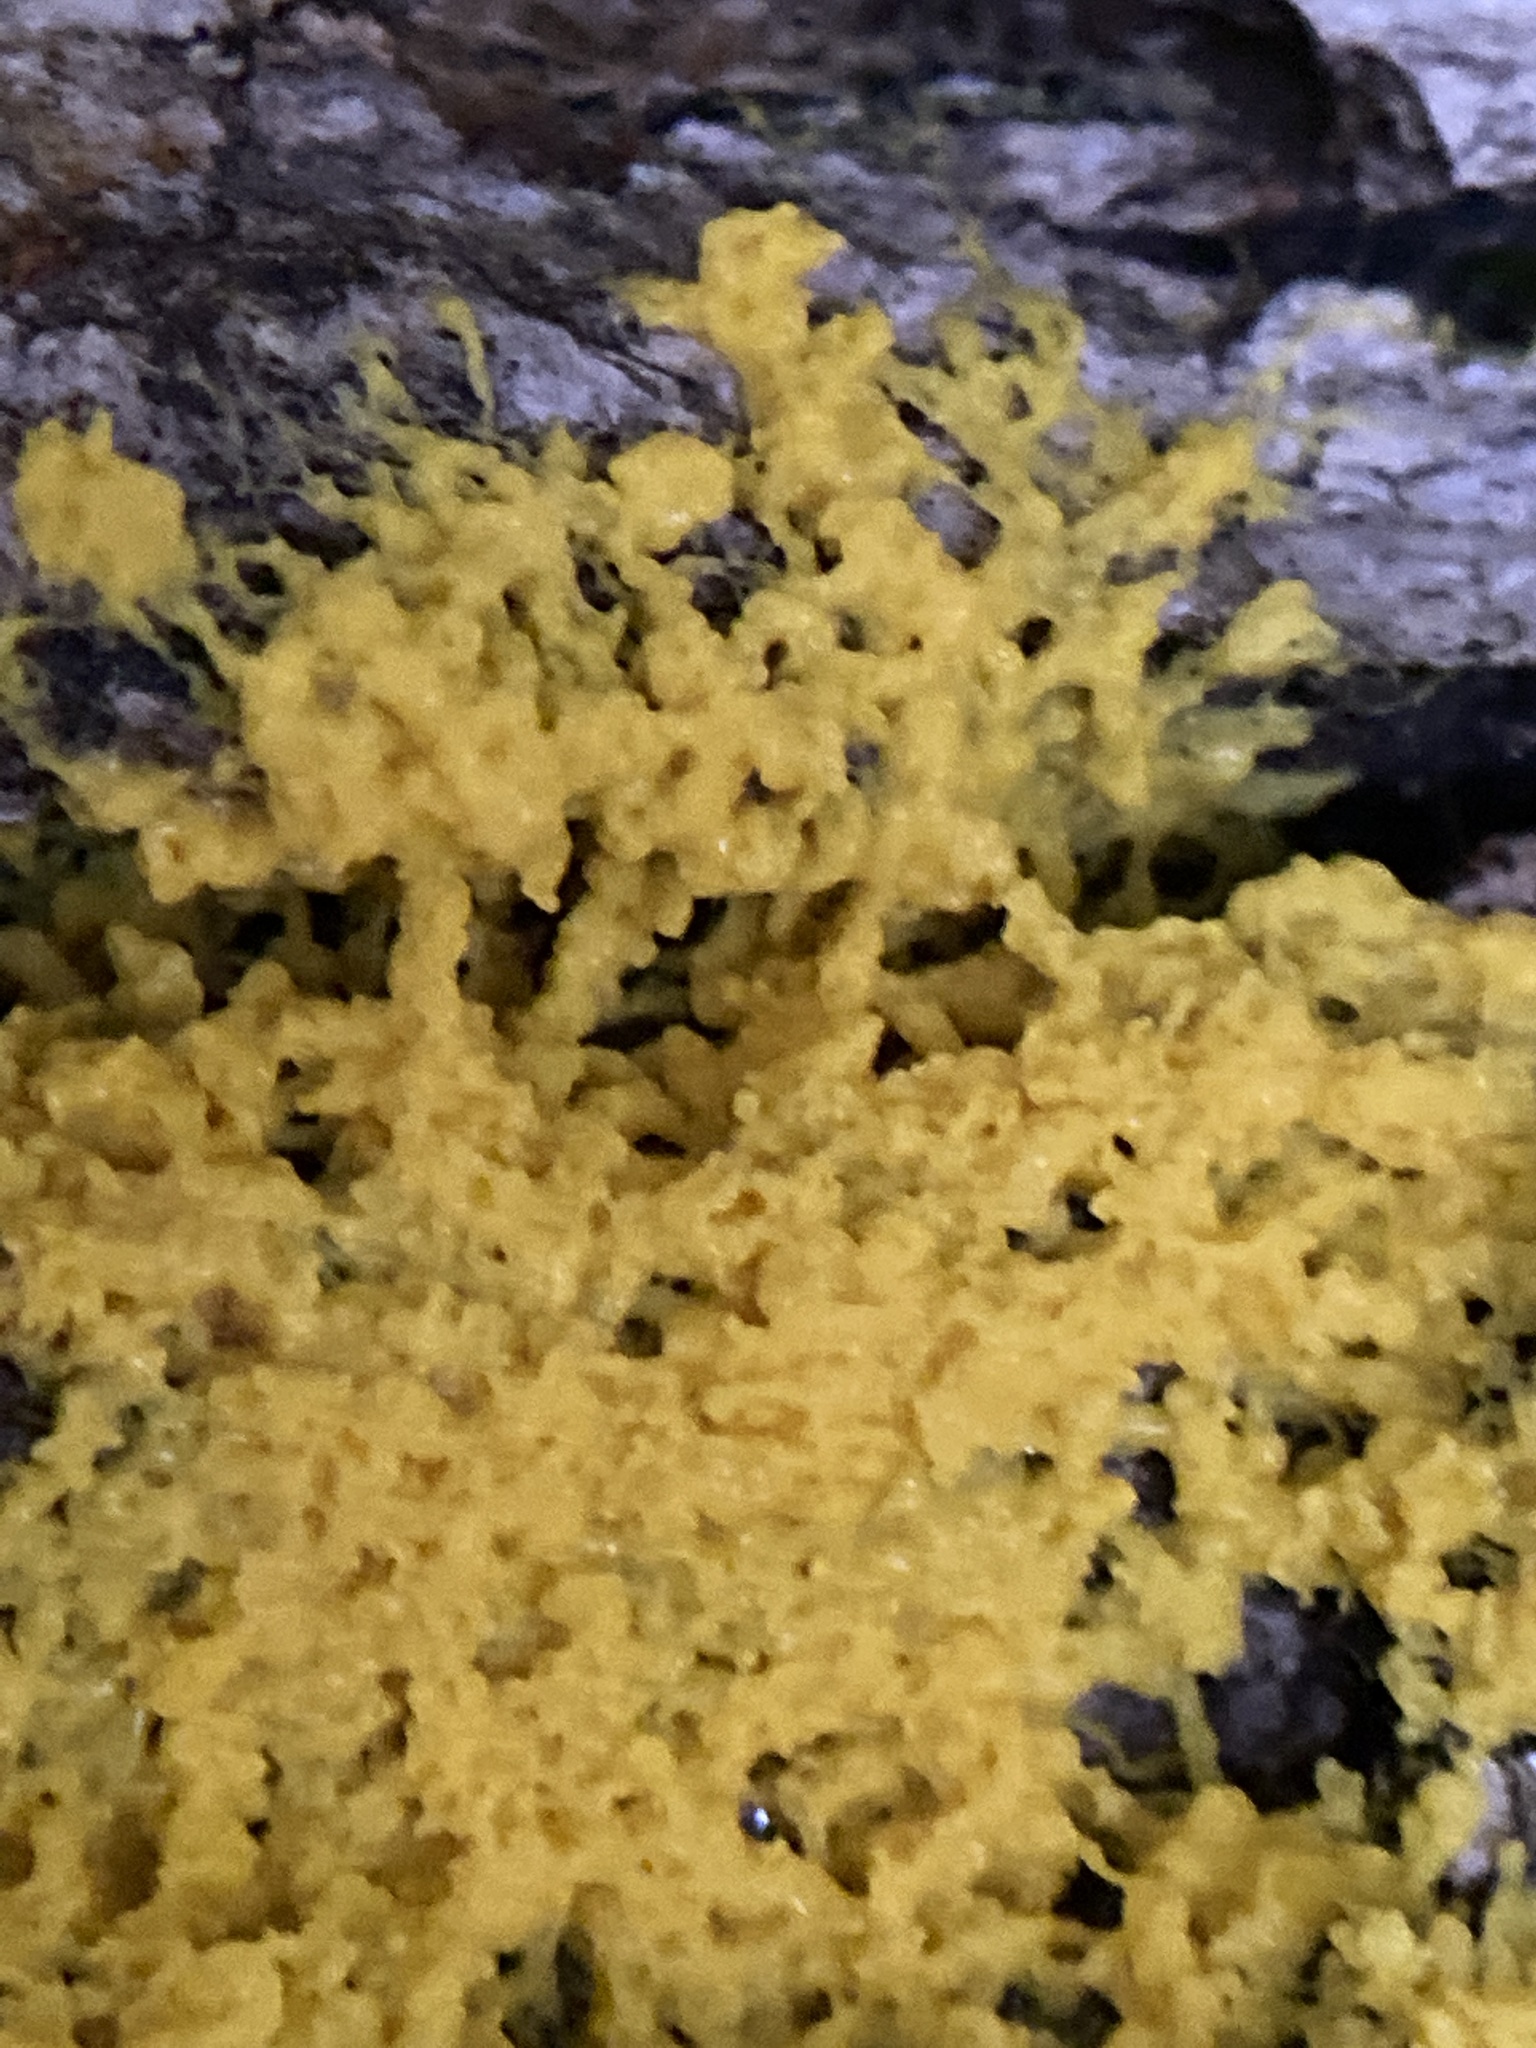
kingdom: Protozoa
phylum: Mycetozoa
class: Myxomycetes
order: Physarales
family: Physaraceae
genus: Fuligo
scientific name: Fuligo septica
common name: Dog vomit slime mold
